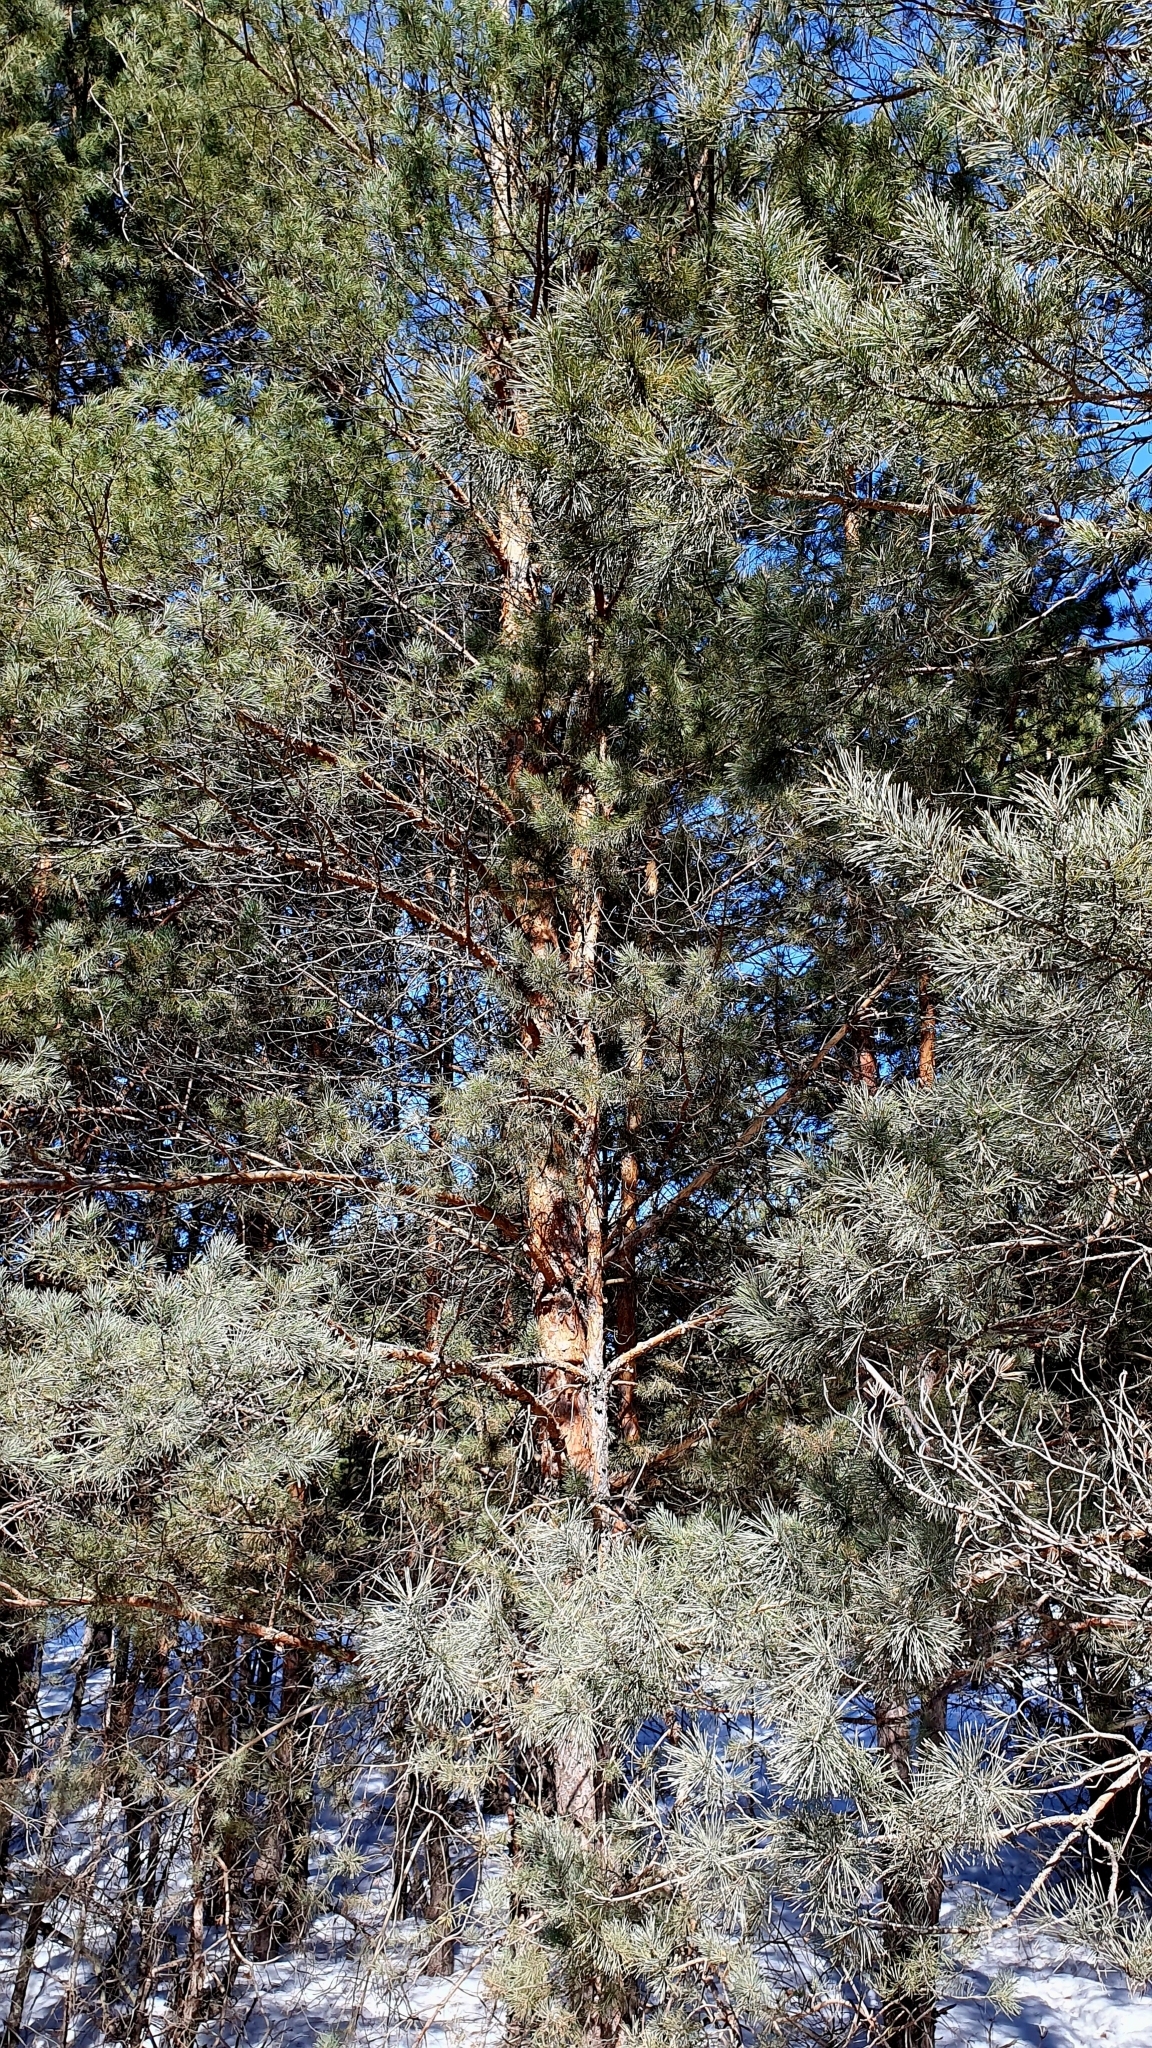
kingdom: Plantae
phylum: Tracheophyta
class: Pinopsida
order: Pinales
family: Pinaceae
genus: Pinus
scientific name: Pinus sylvestris
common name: Scots pine
